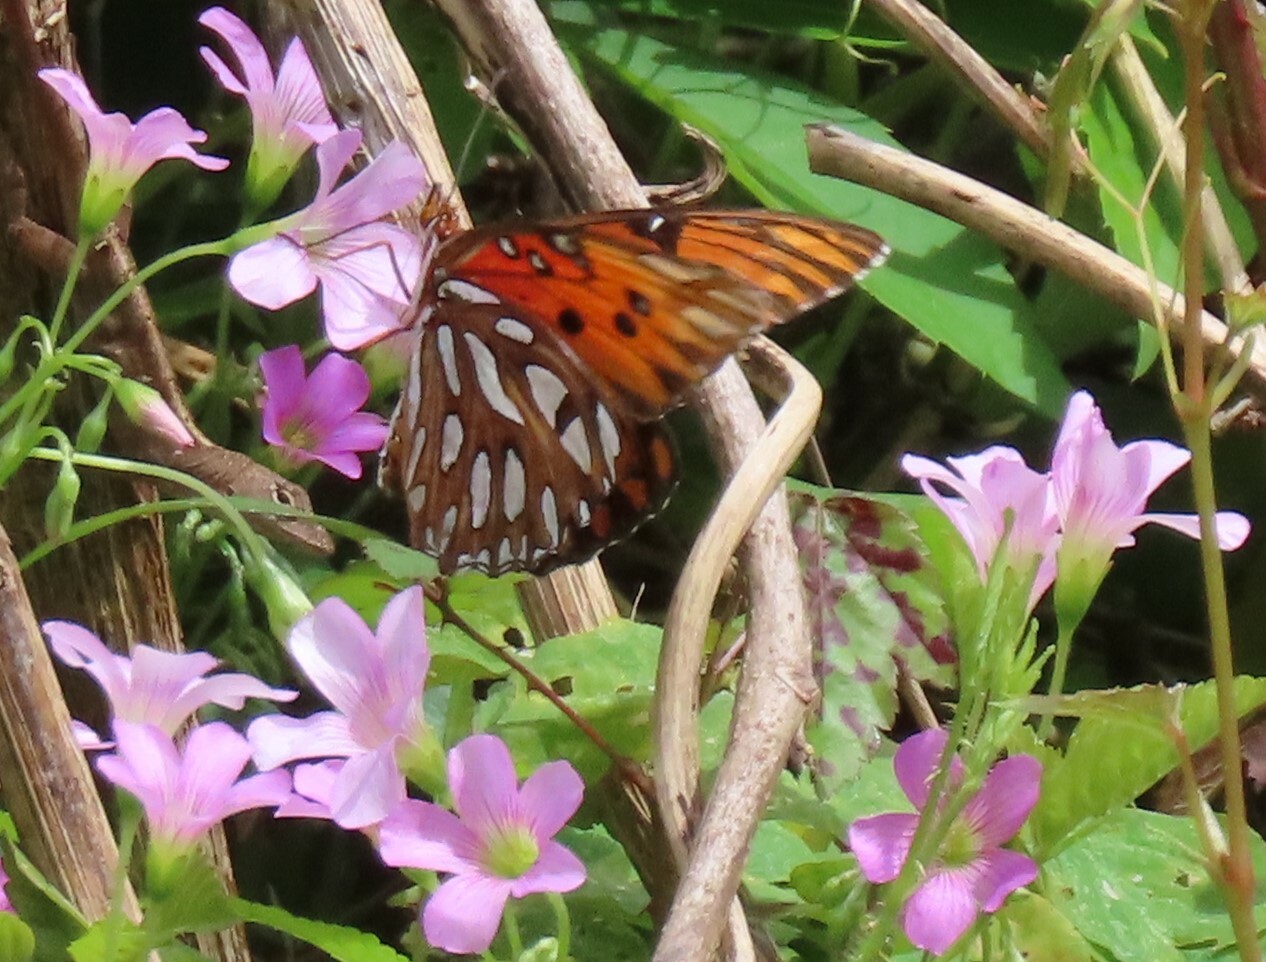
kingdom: Animalia
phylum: Arthropoda
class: Insecta
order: Lepidoptera
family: Nymphalidae
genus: Dione
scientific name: Dione vanillae
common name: Gulf fritillary
